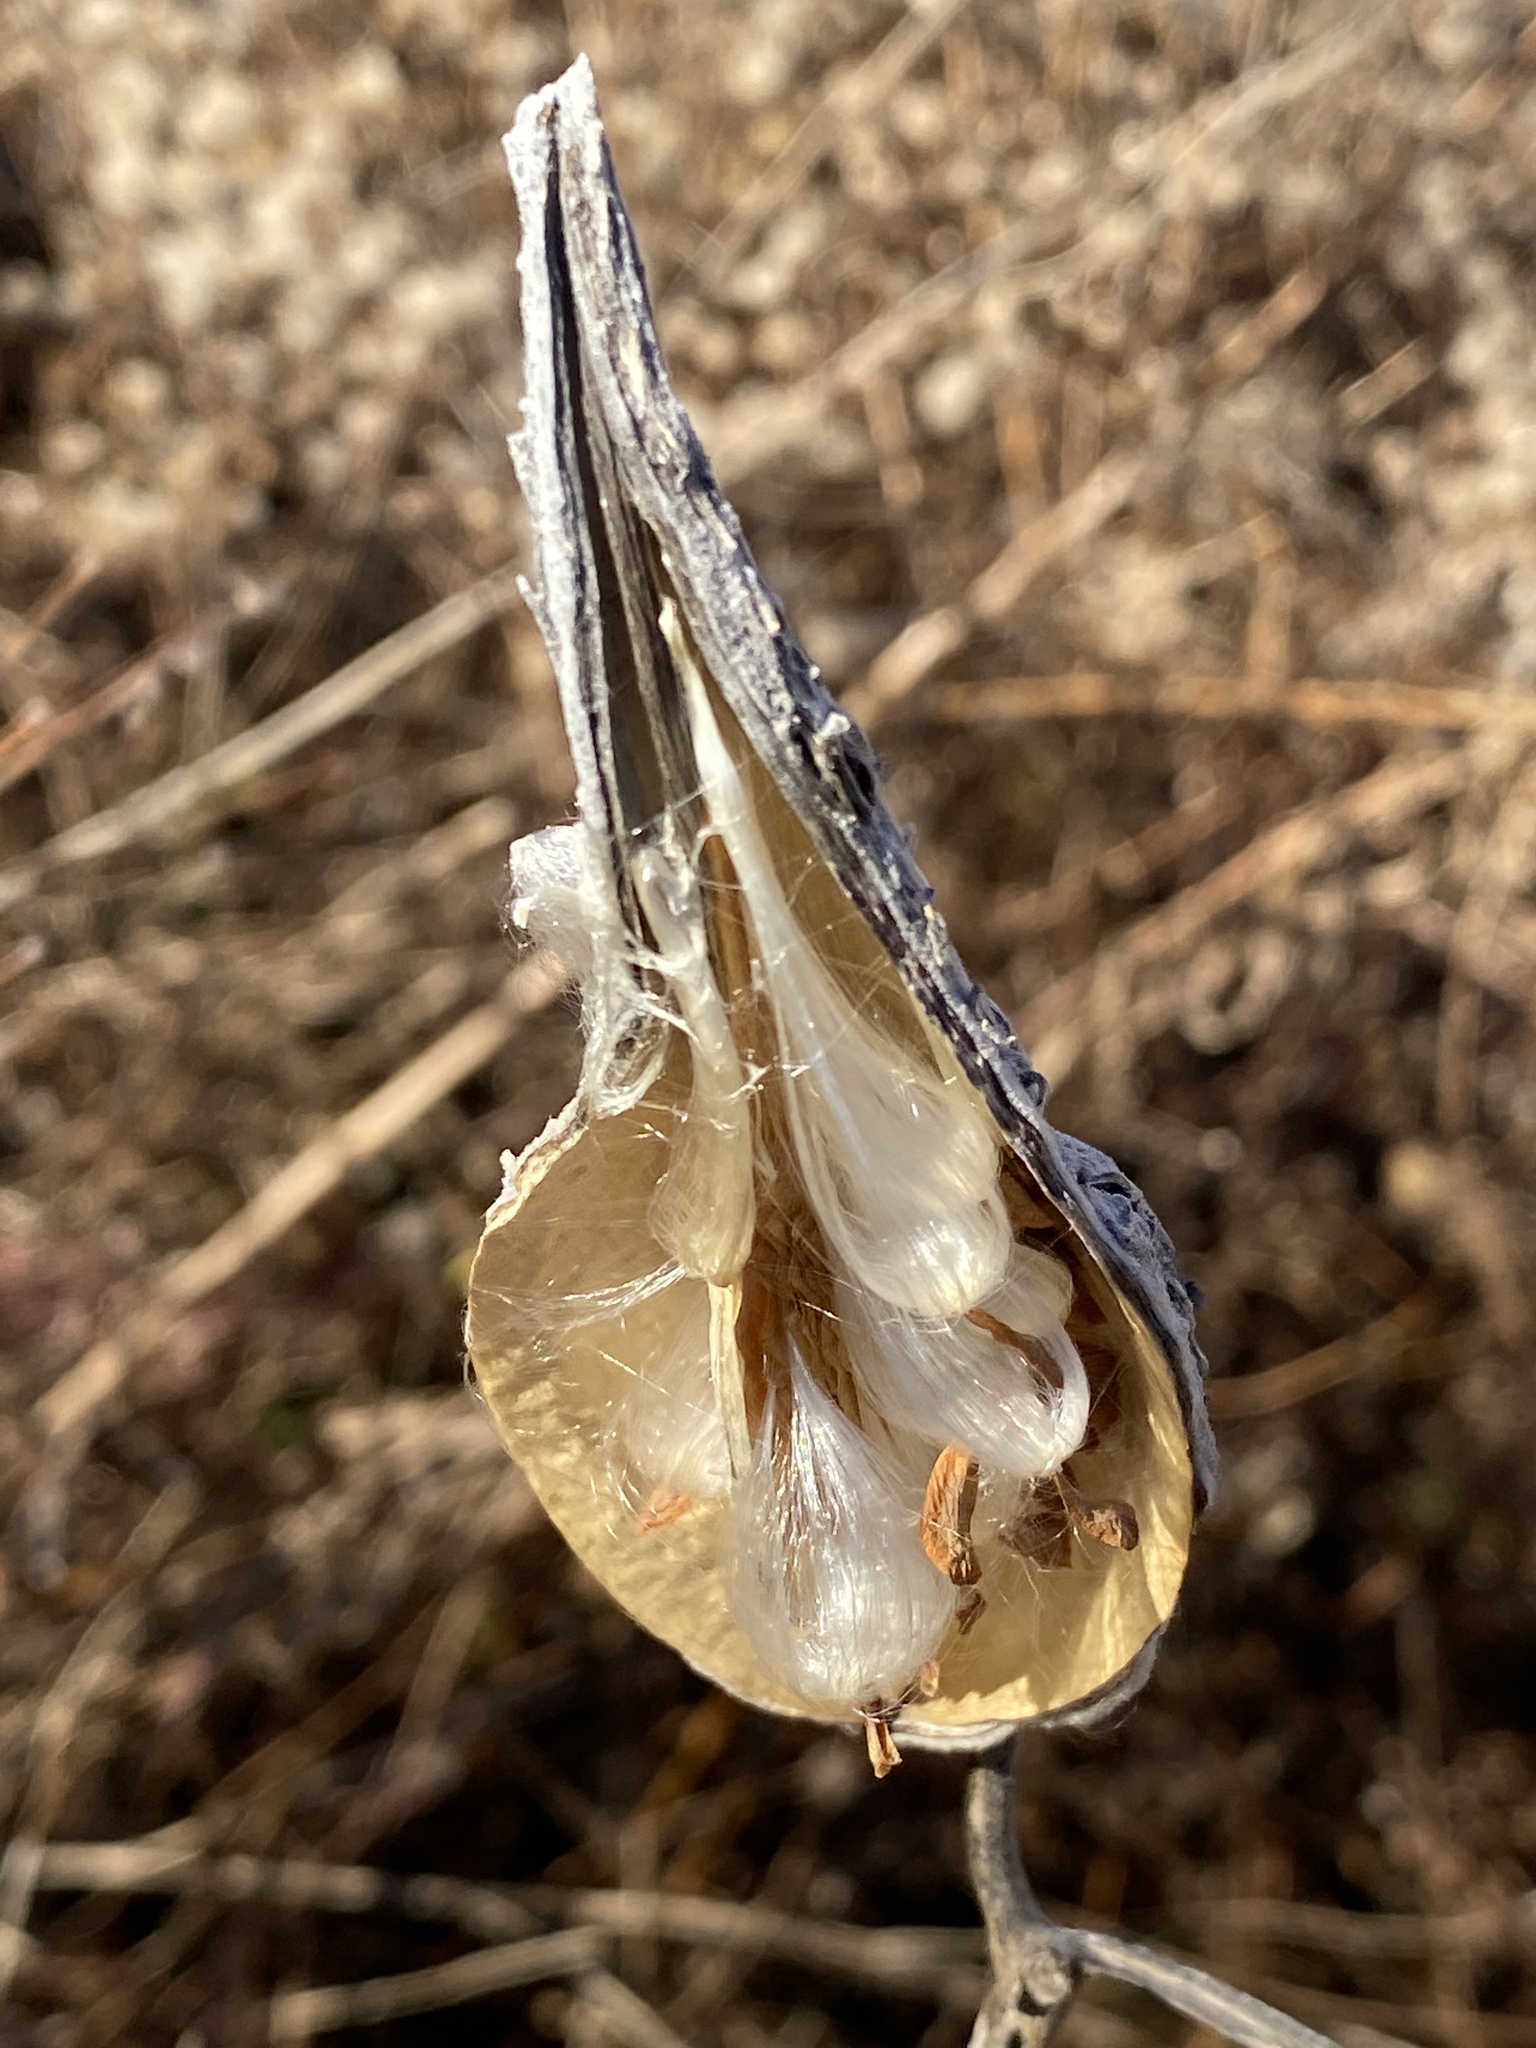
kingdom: Plantae
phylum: Tracheophyta
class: Magnoliopsida
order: Gentianales
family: Apocynaceae
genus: Asclepias
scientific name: Asclepias syriaca
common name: Common milkweed
